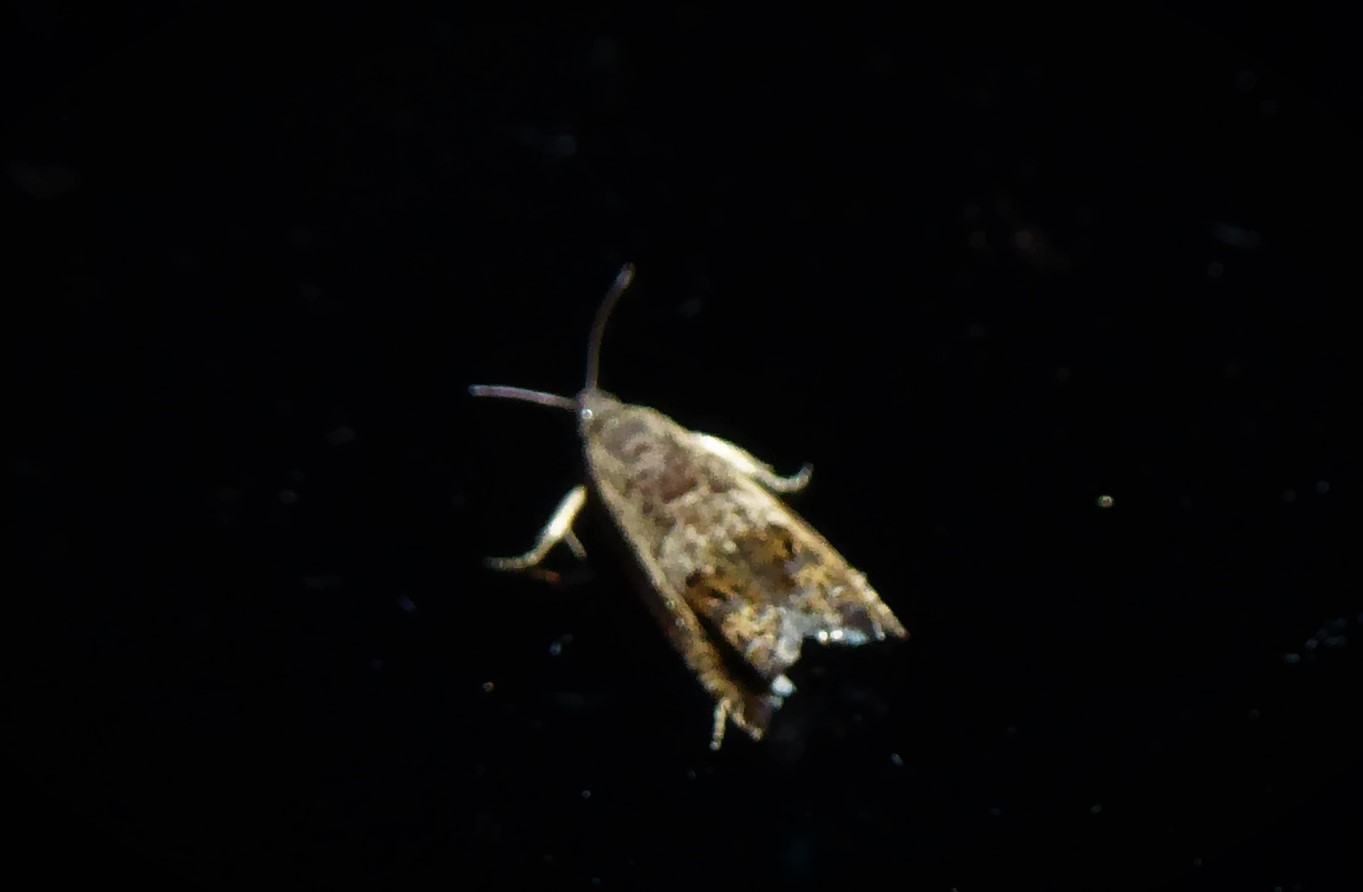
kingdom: Animalia
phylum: Arthropoda
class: Insecta
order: Lepidoptera
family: Tortricidae
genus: Cydia
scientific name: Cydia succedana
